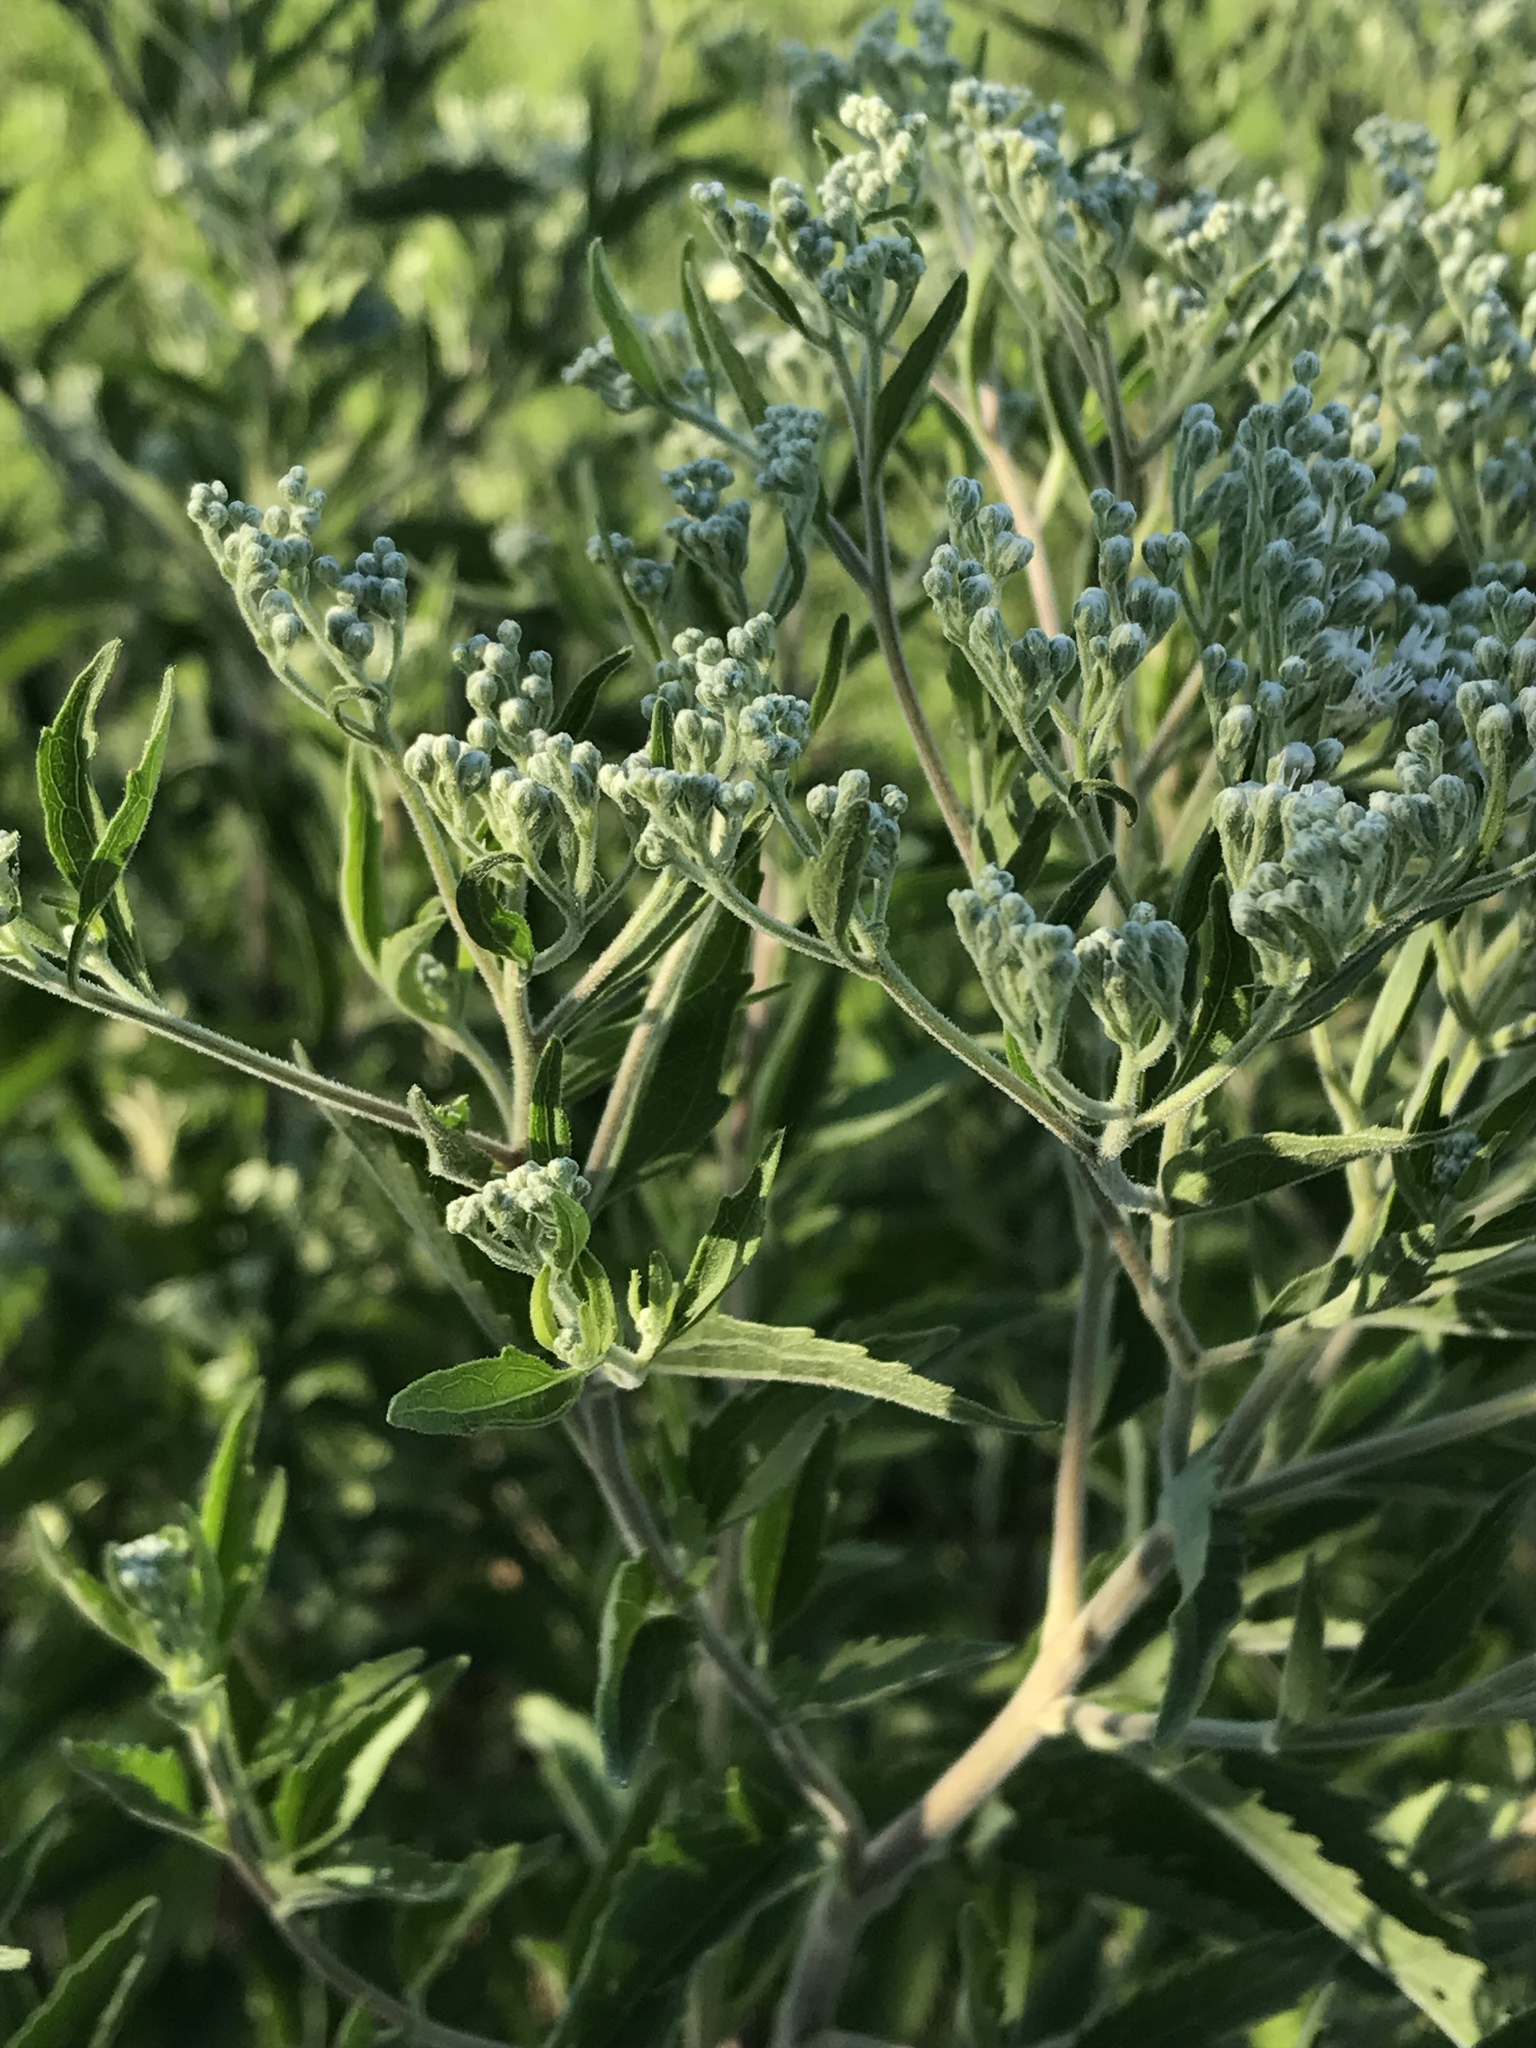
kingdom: Plantae
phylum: Tracheophyta
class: Magnoliopsida
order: Asterales
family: Asteraceae
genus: Eupatorium
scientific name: Eupatorium serotinum
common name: Late boneset
